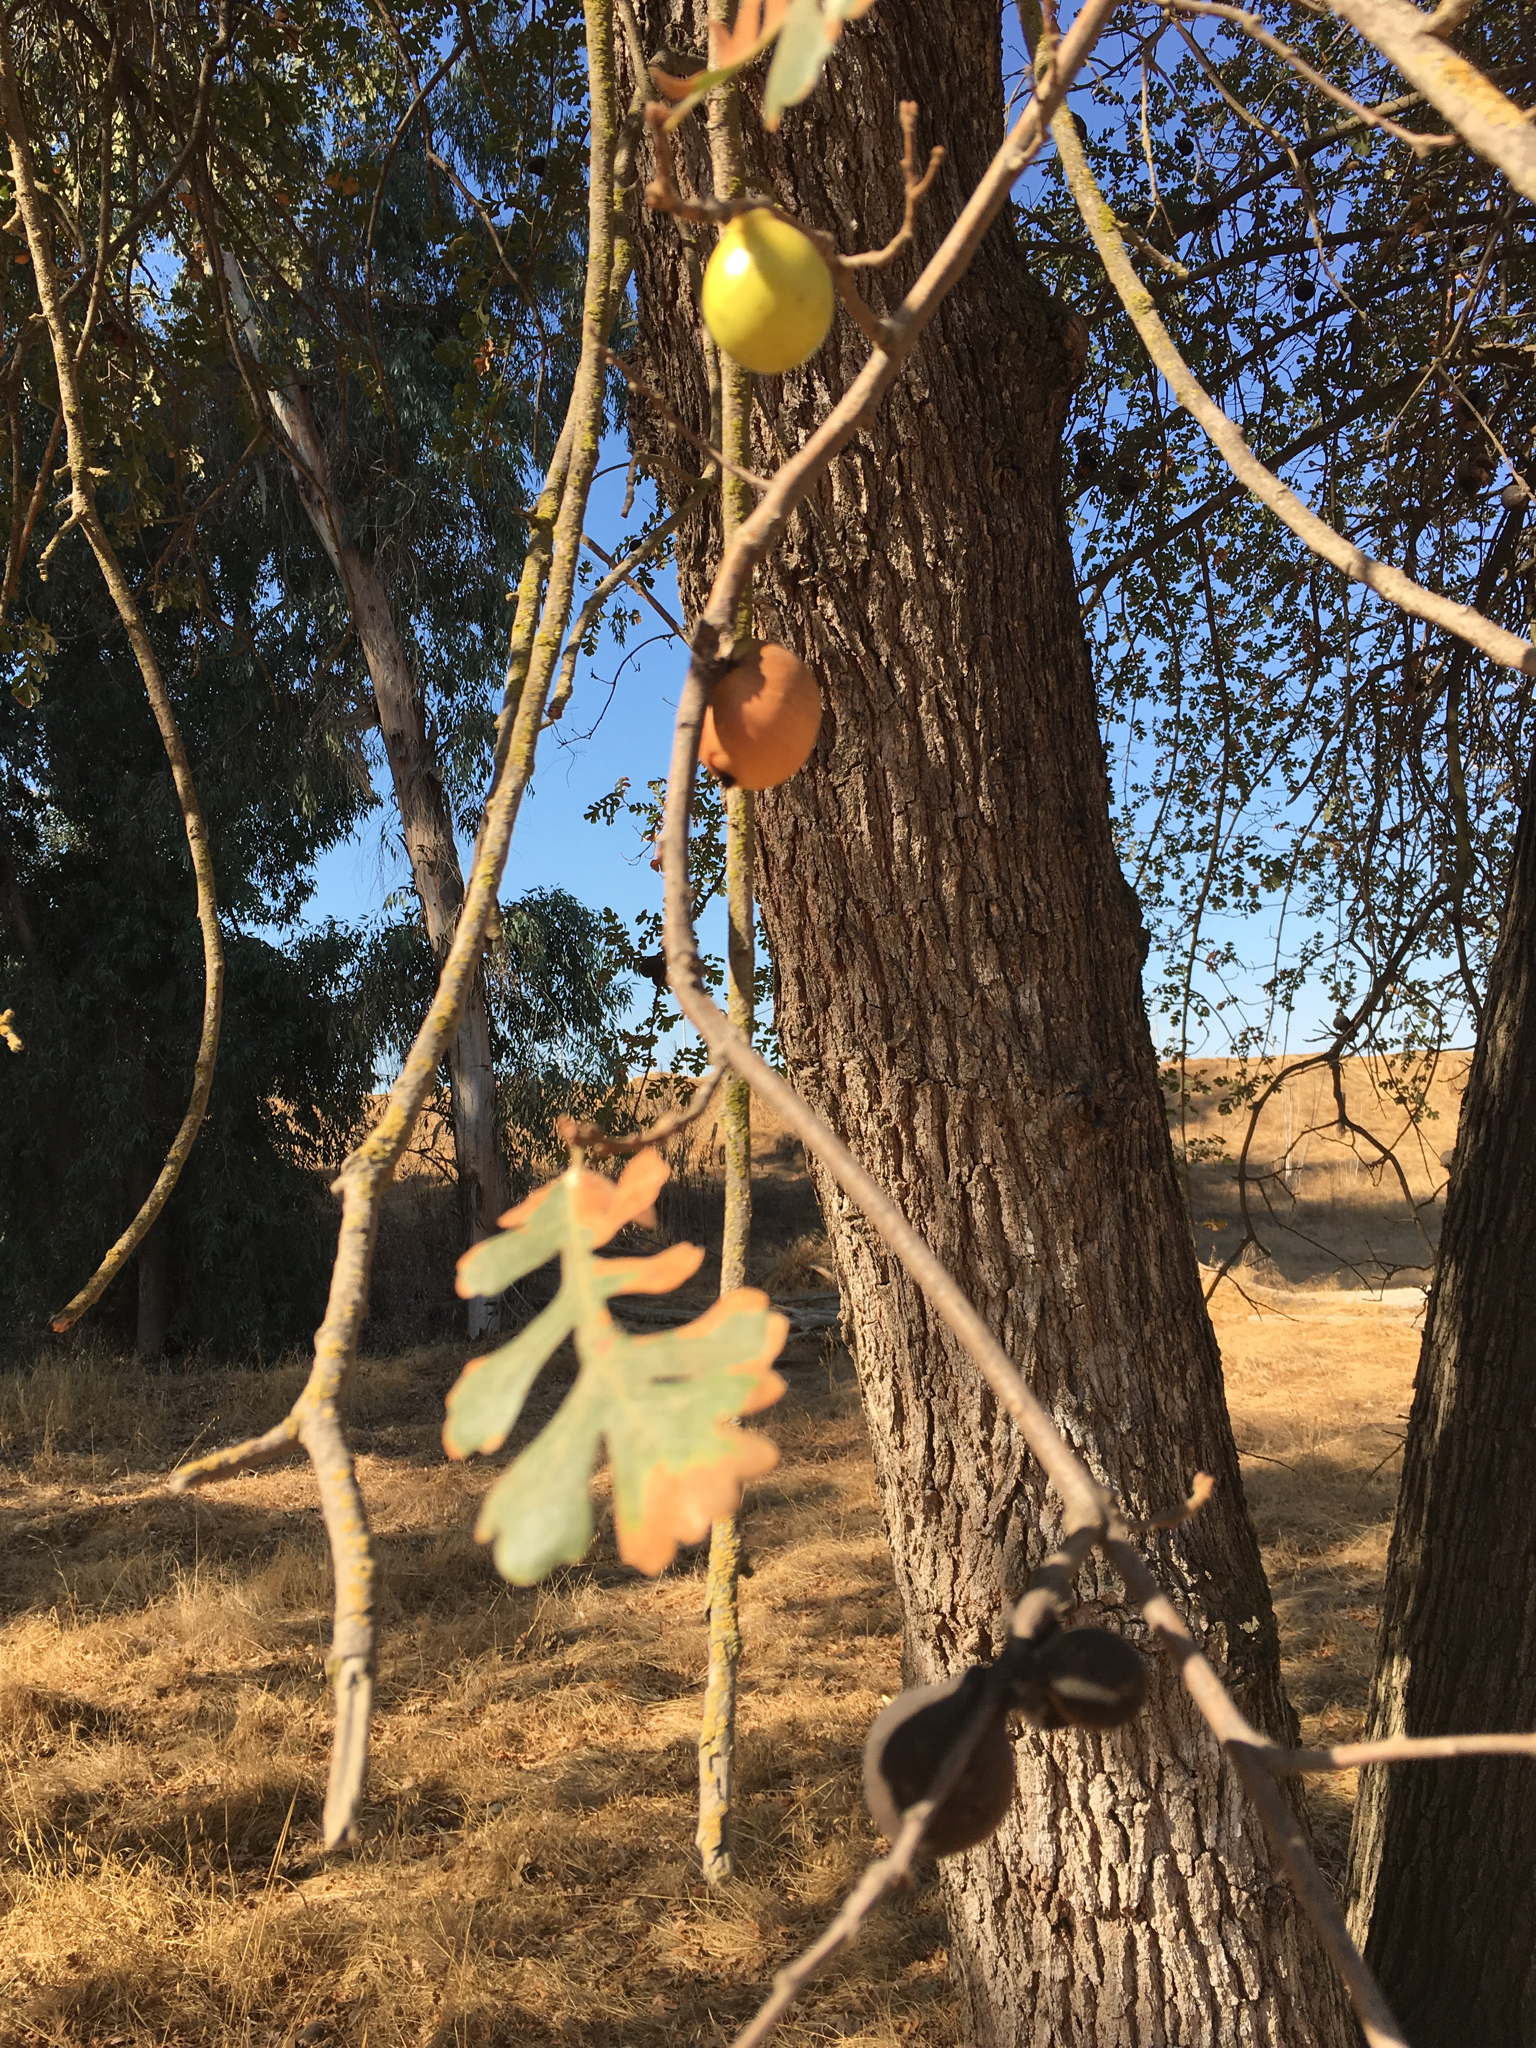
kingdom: Plantae
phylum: Tracheophyta
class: Magnoliopsida
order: Fagales
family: Fagaceae
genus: Quercus
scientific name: Quercus lobata
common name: Valley oak
